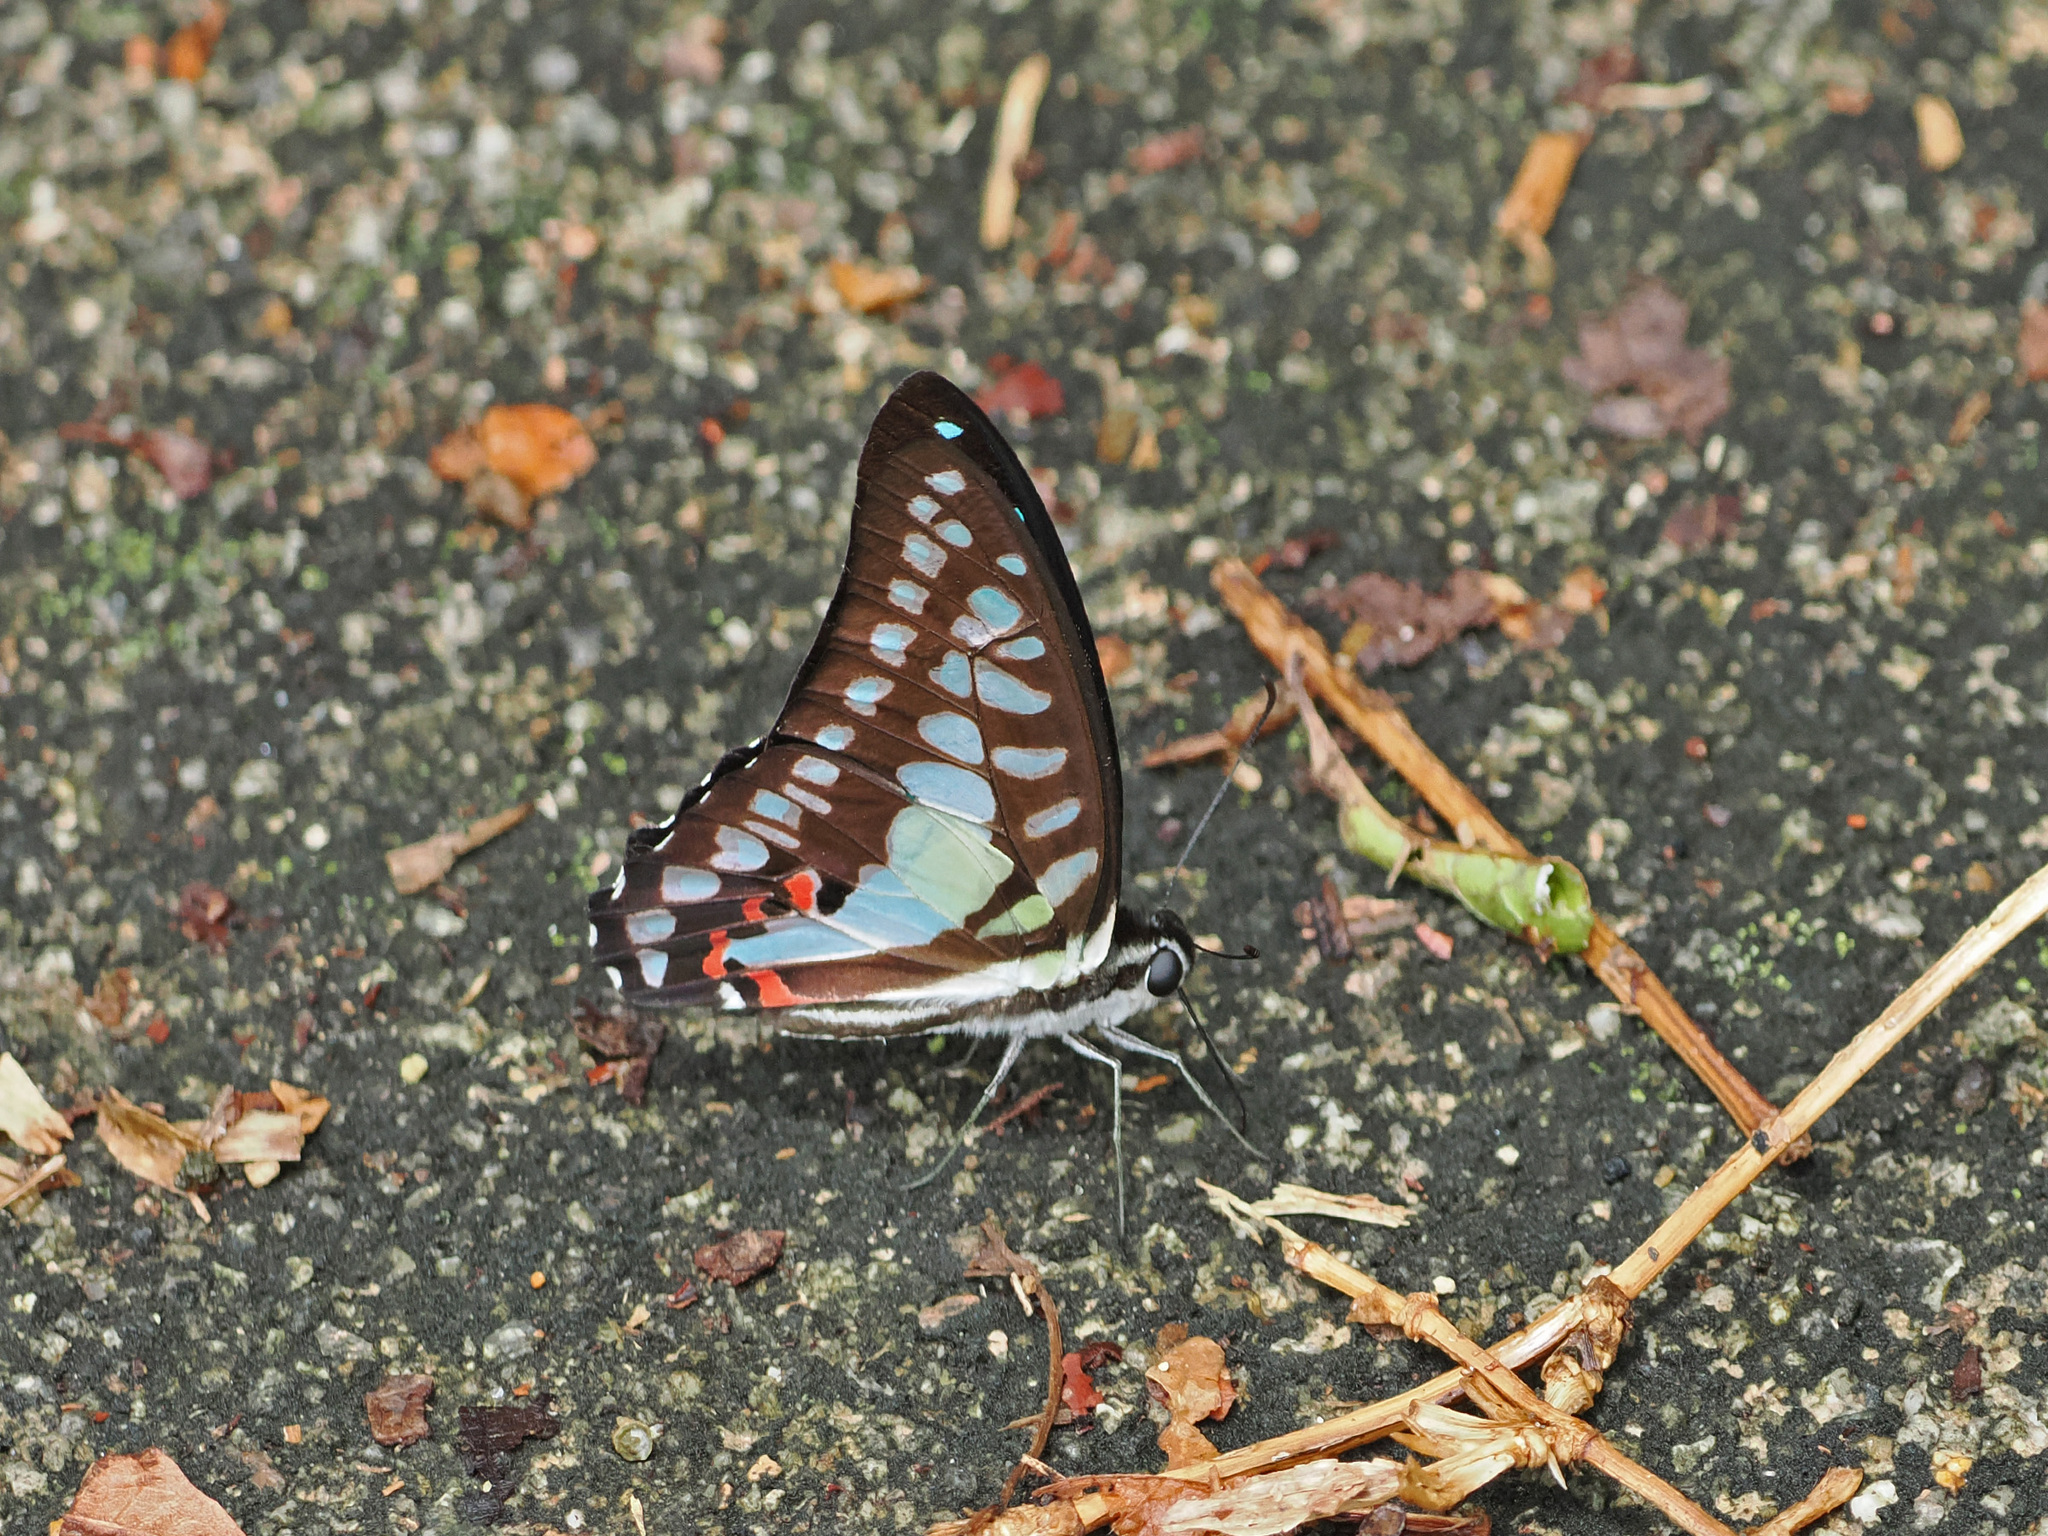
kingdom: Animalia
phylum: Arthropoda
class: Insecta
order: Lepidoptera
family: Papilionidae
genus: Graphium
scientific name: Graphium evemon
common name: Lesser jay
